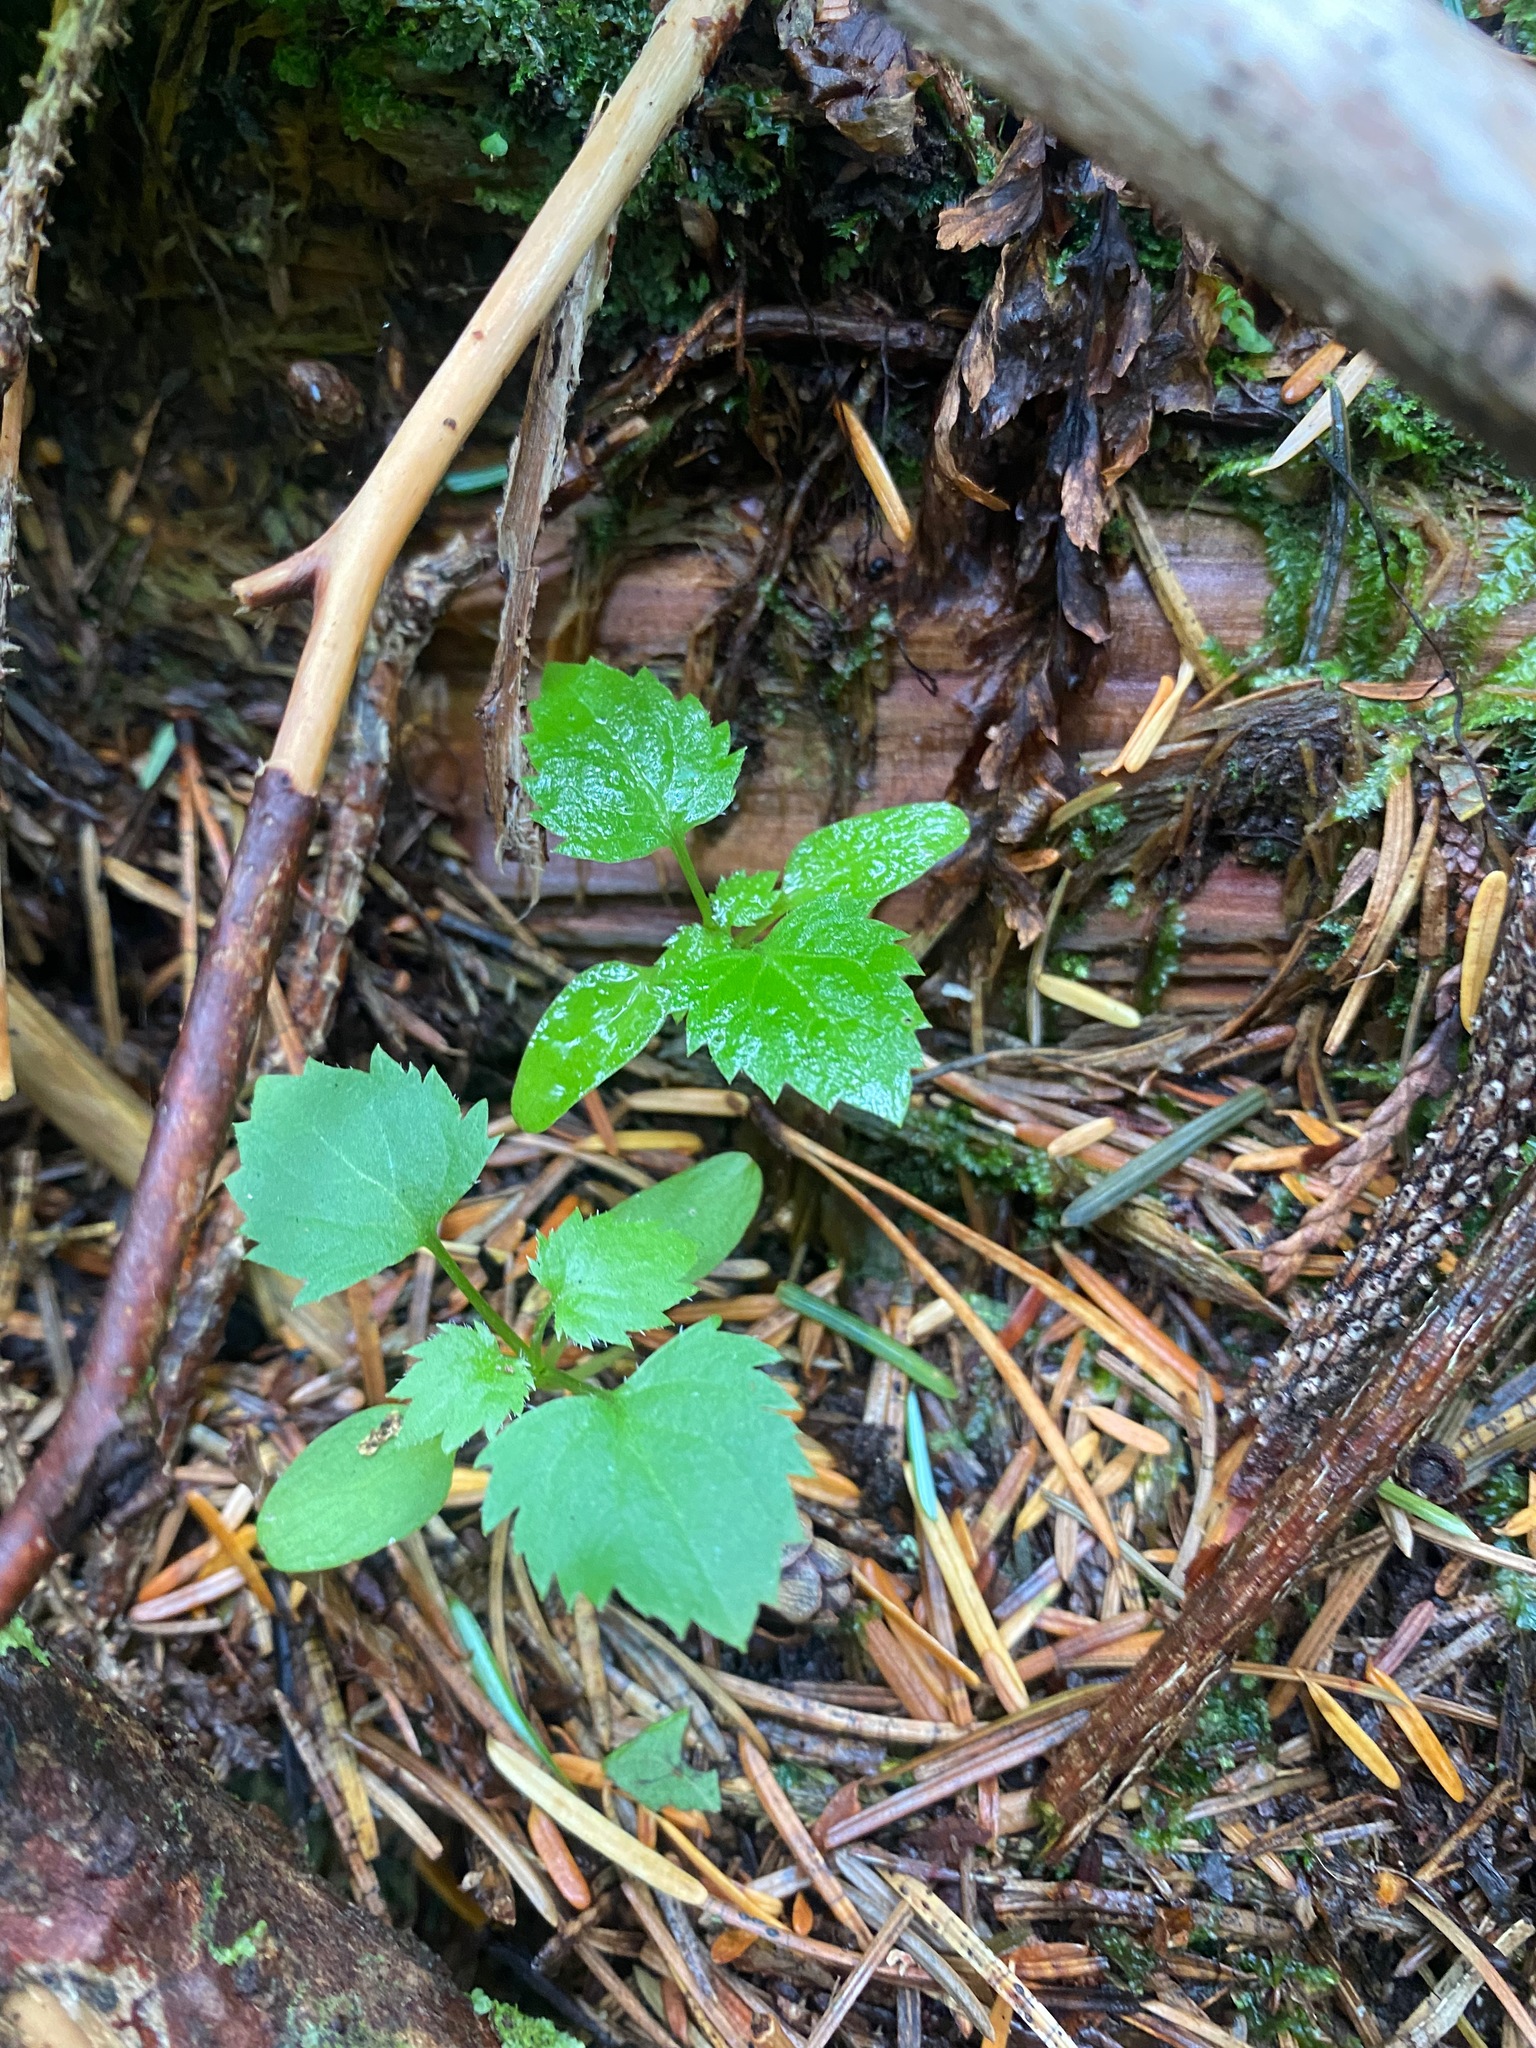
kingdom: Plantae
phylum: Tracheophyta
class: Magnoliopsida
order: Myrtales
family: Onagraceae
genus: Circaea
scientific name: Circaea alpina
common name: Alpine enchanter's-nightshade
